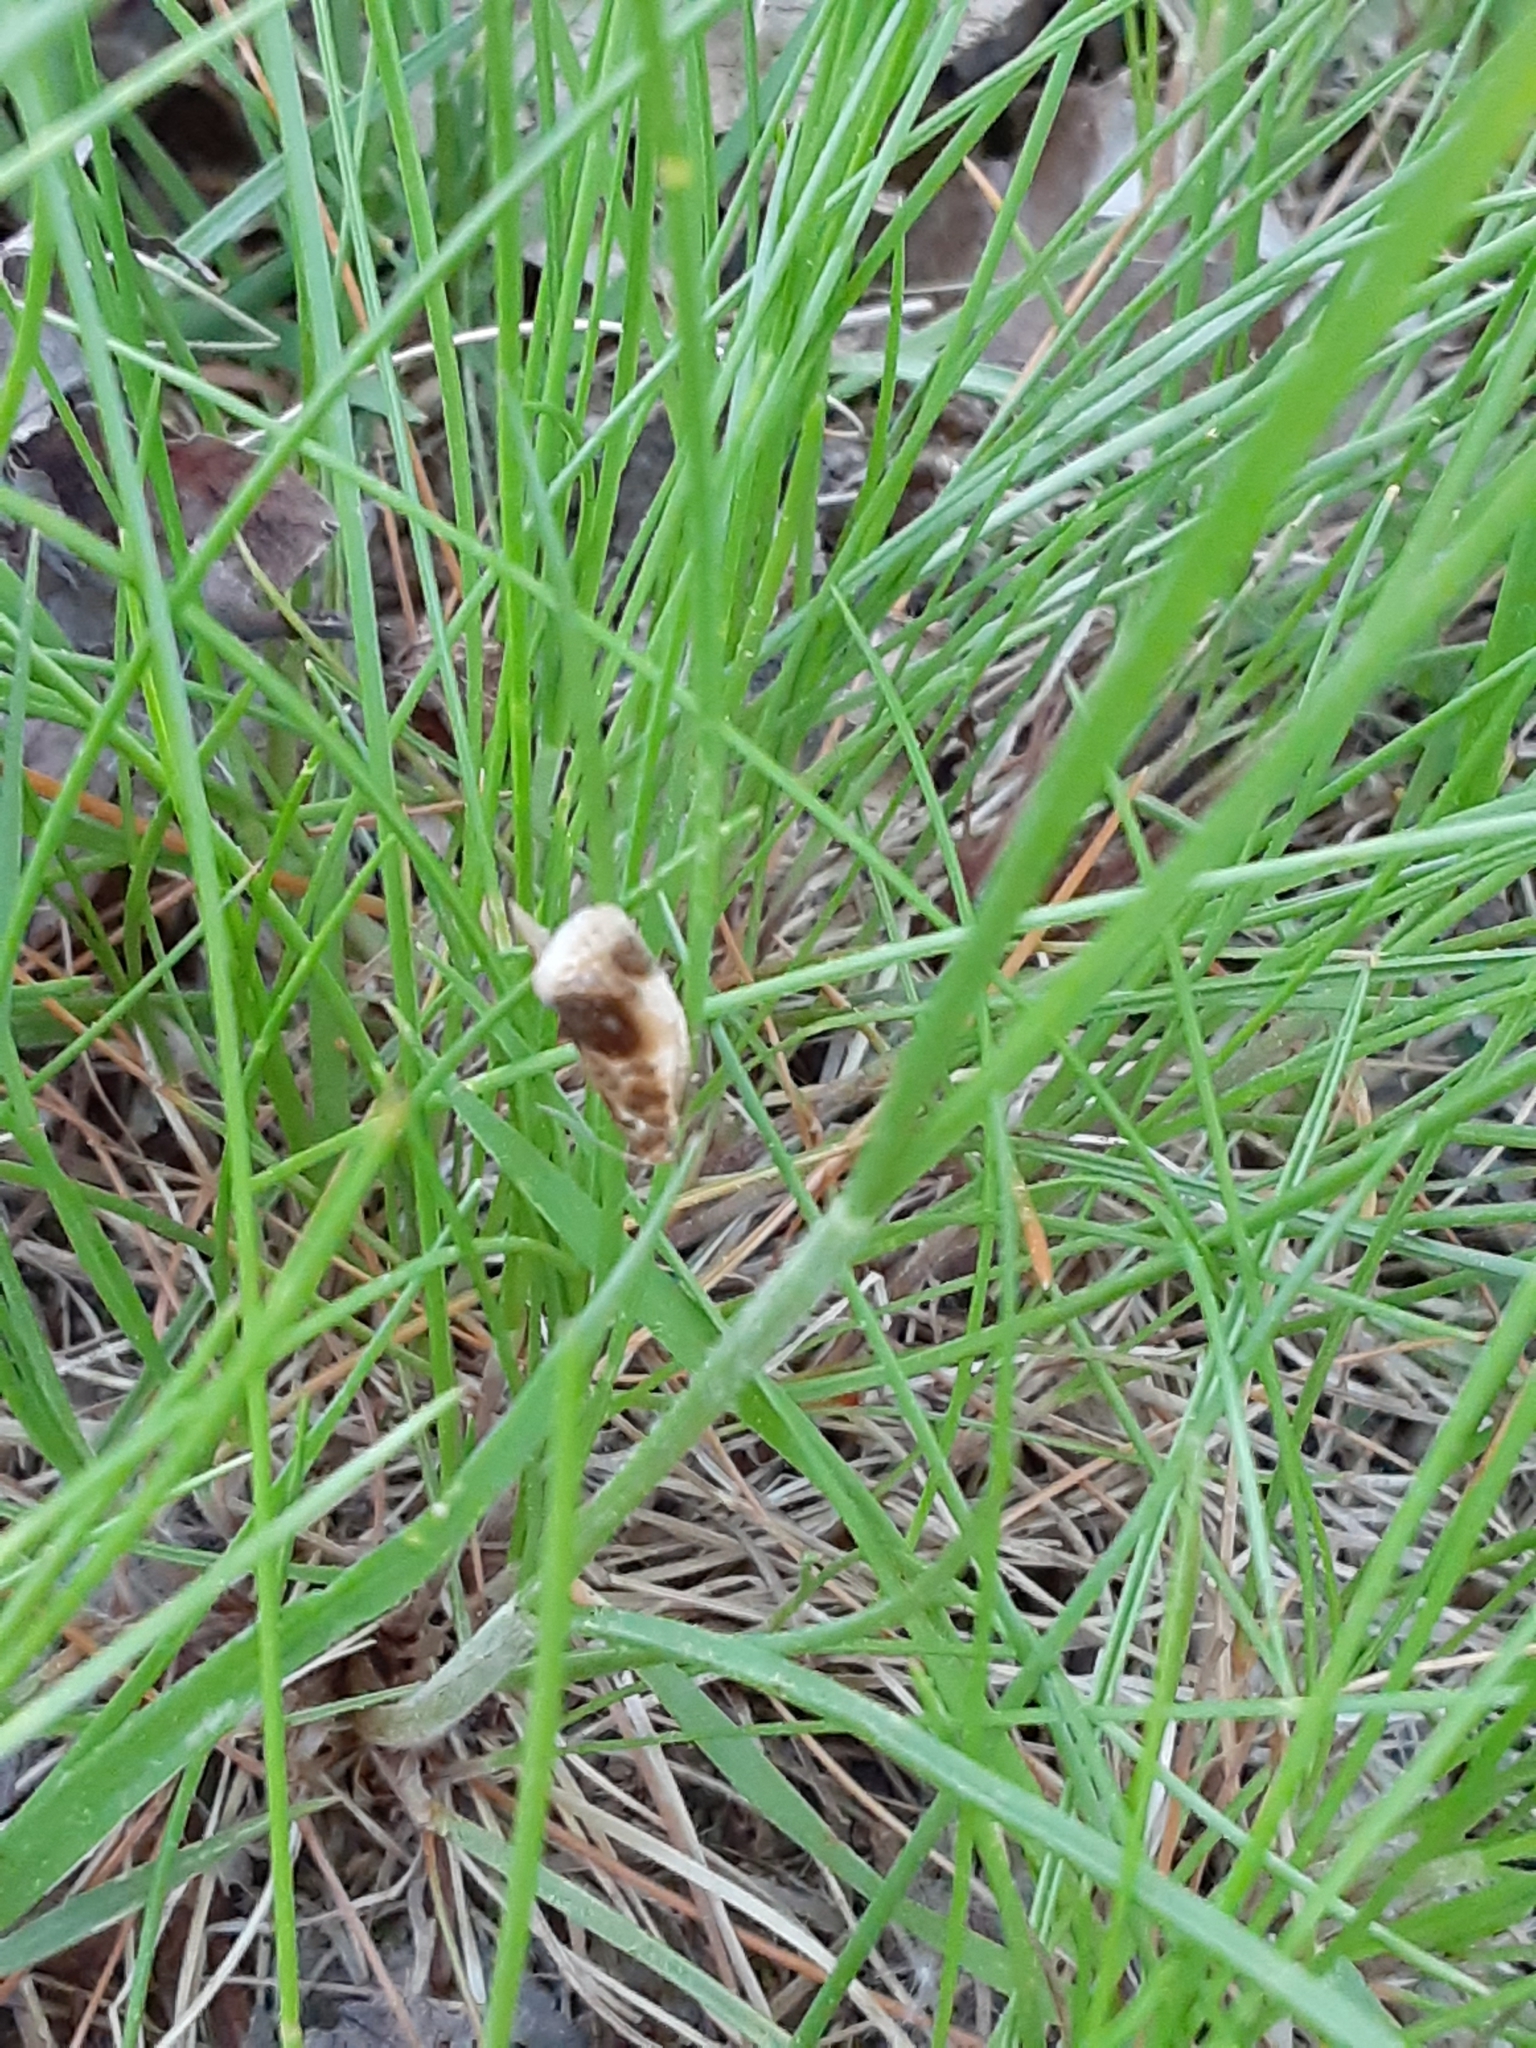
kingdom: Animalia
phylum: Arthropoda
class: Insecta
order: Lepidoptera
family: Tortricidae
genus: Clepsis
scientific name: Clepsis melaleucanus
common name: American apple tortrix
